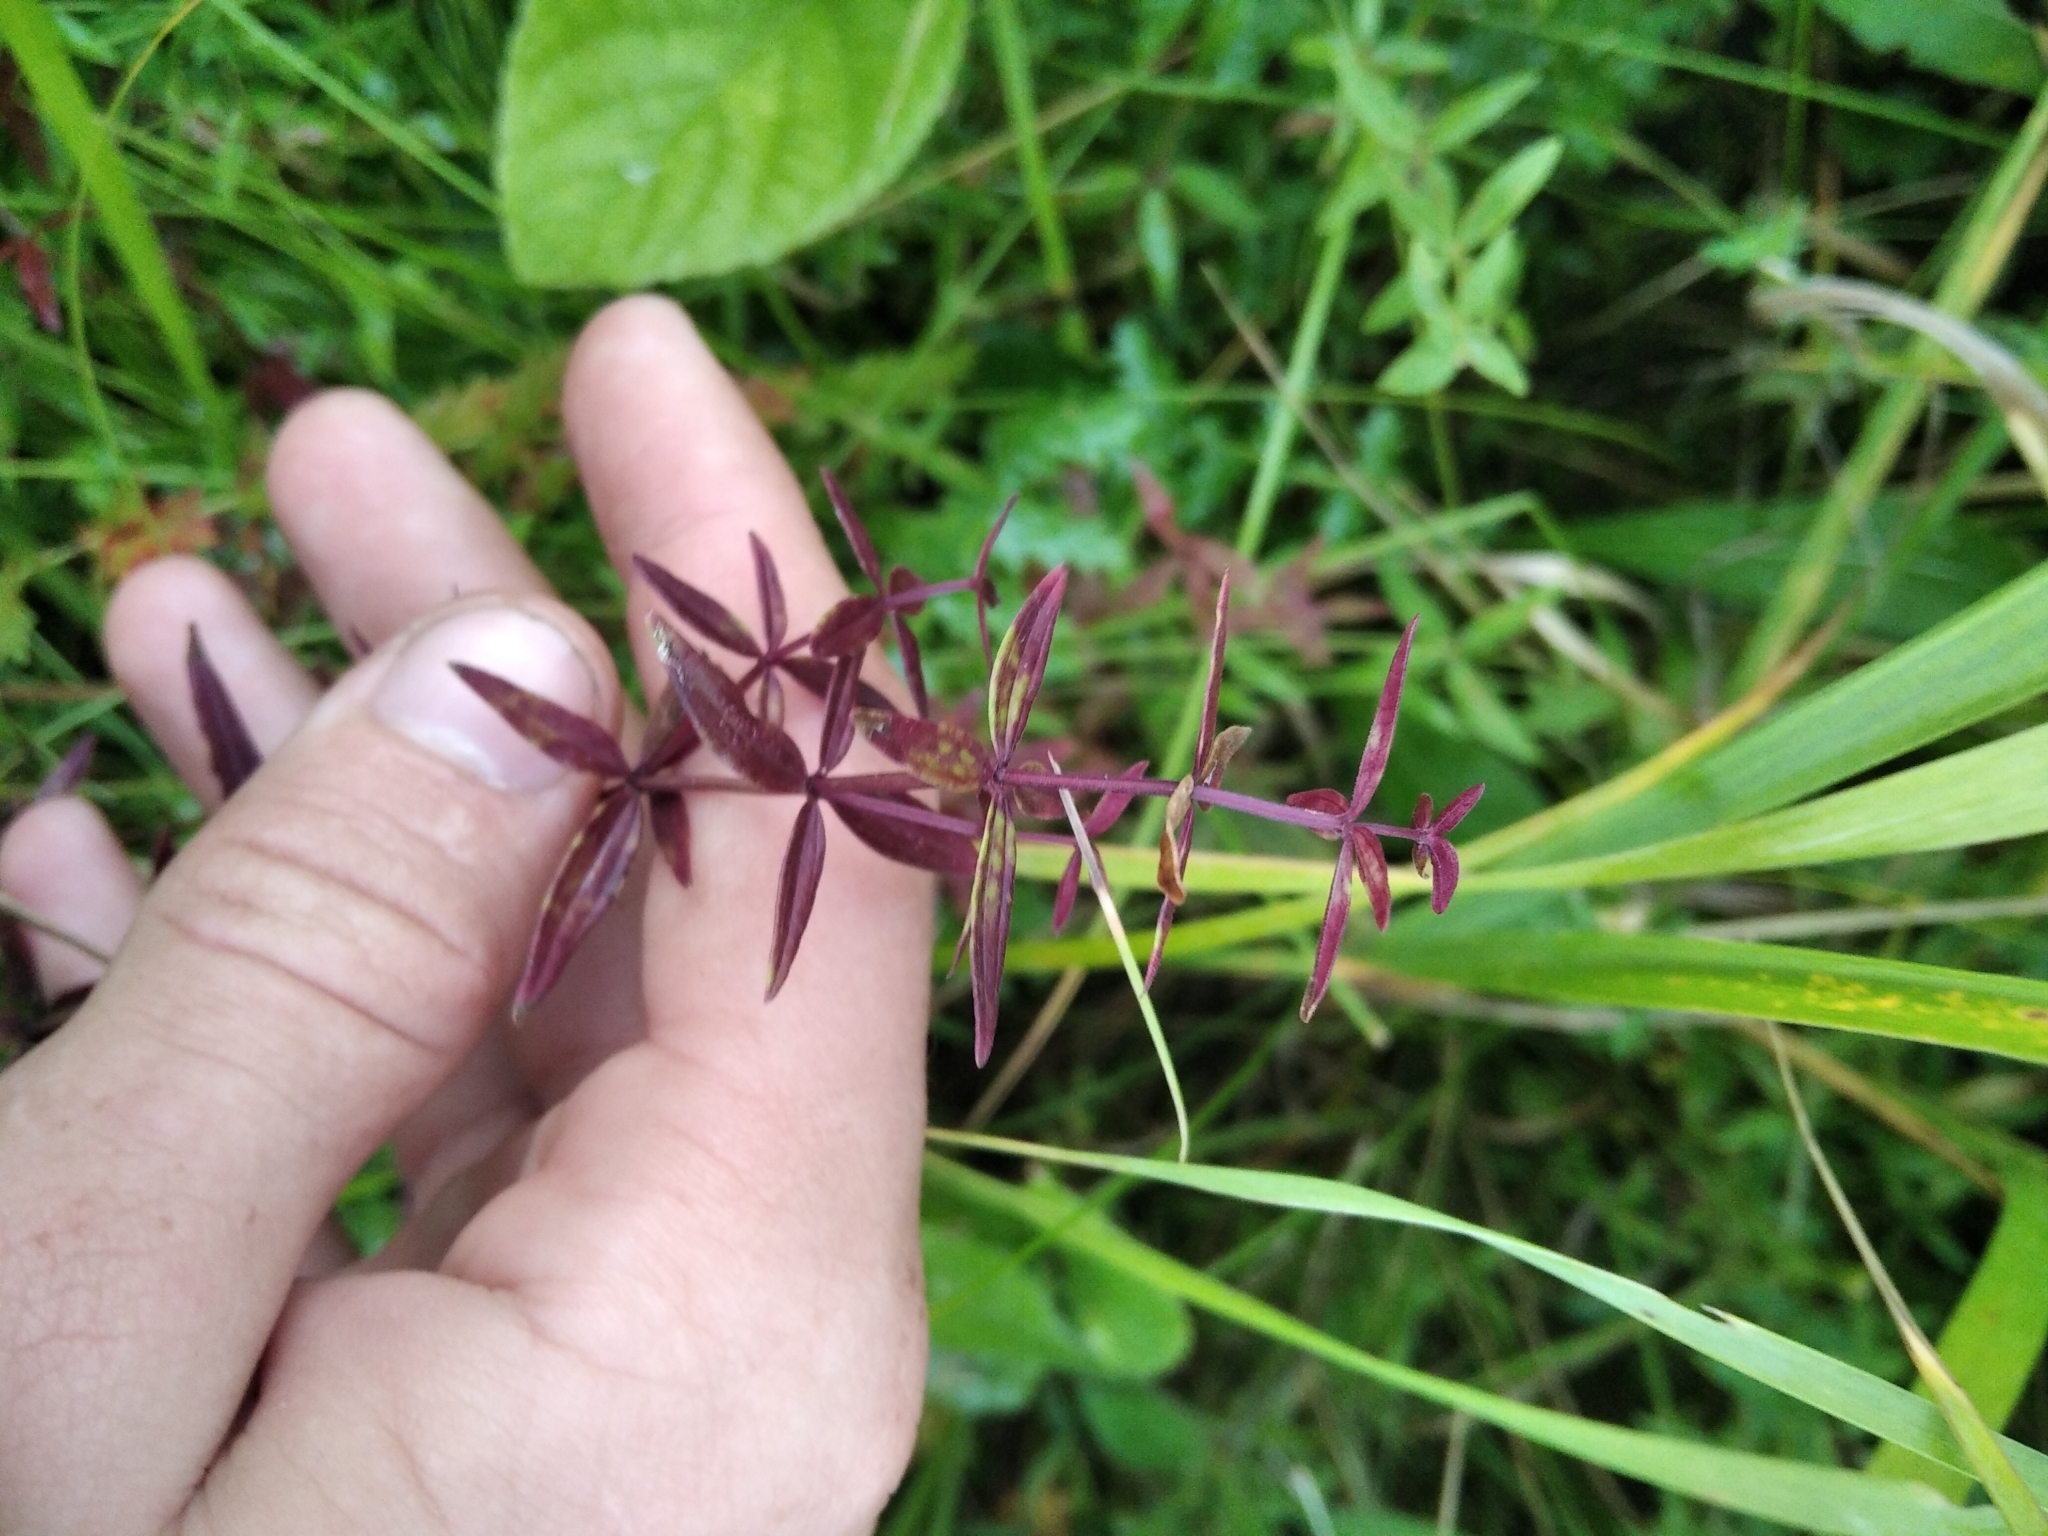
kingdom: Plantae
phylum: Tracheophyta
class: Magnoliopsida
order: Gentianales
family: Rubiaceae
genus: Galium
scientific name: Galium boreale
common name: Northern bedstraw
